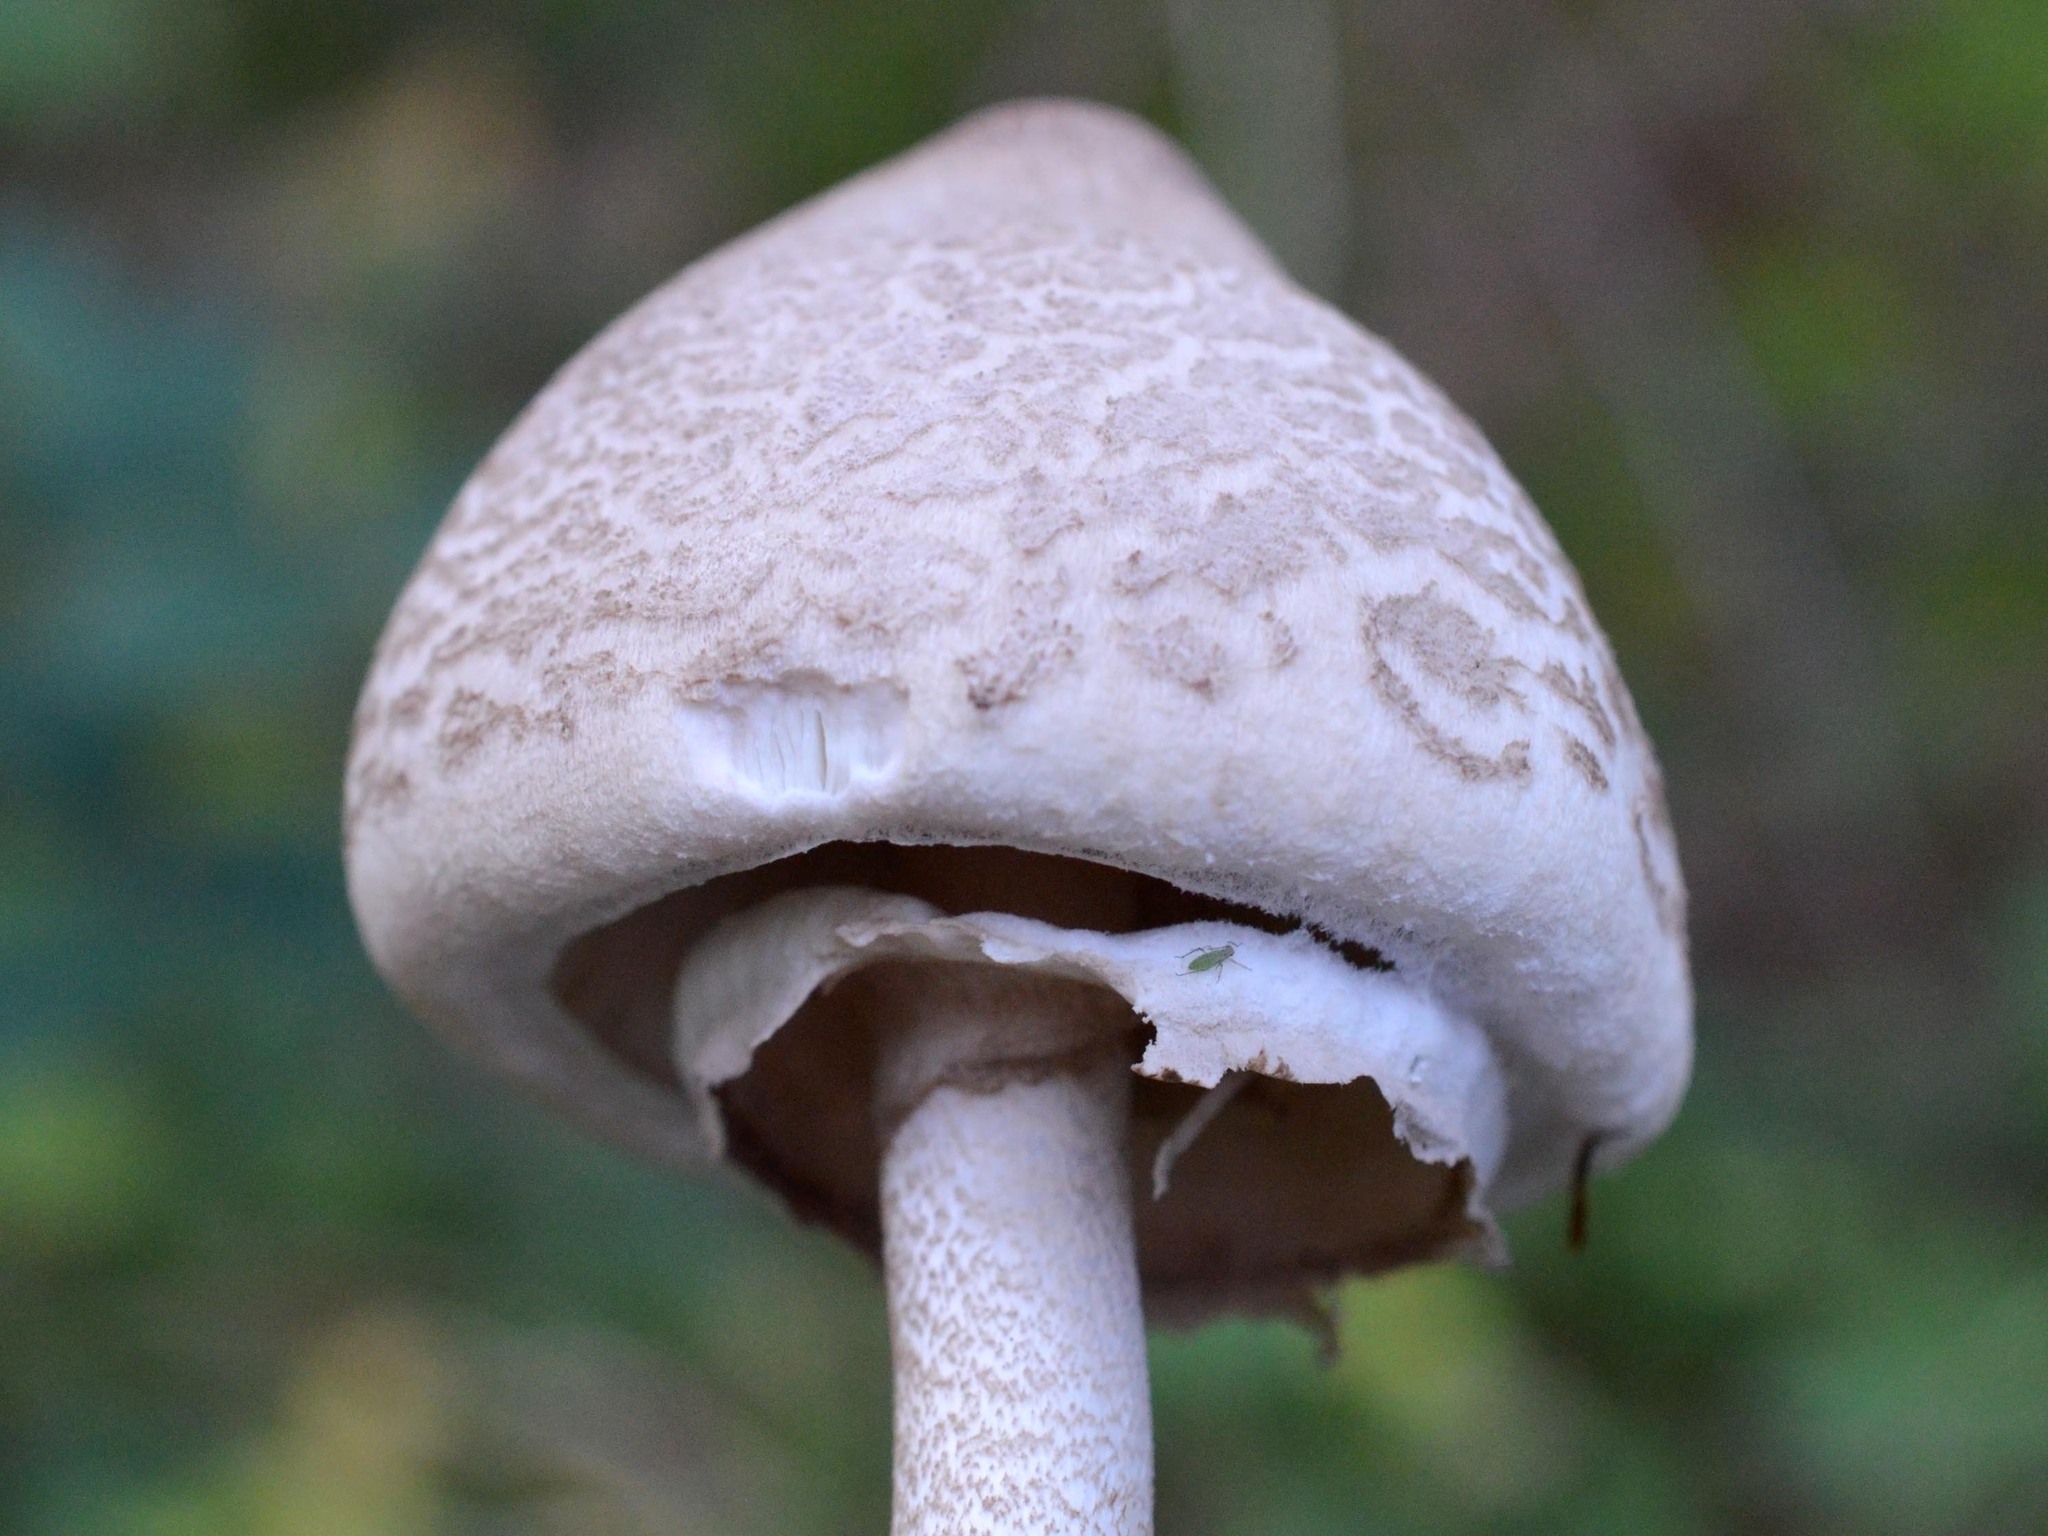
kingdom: Fungi
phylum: Basidiomycota
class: Agaricomycetes
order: Agaricales
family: Agaricaceae
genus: Macrolepiota
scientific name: Macrolepiota mastoidea
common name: Slender parasol
